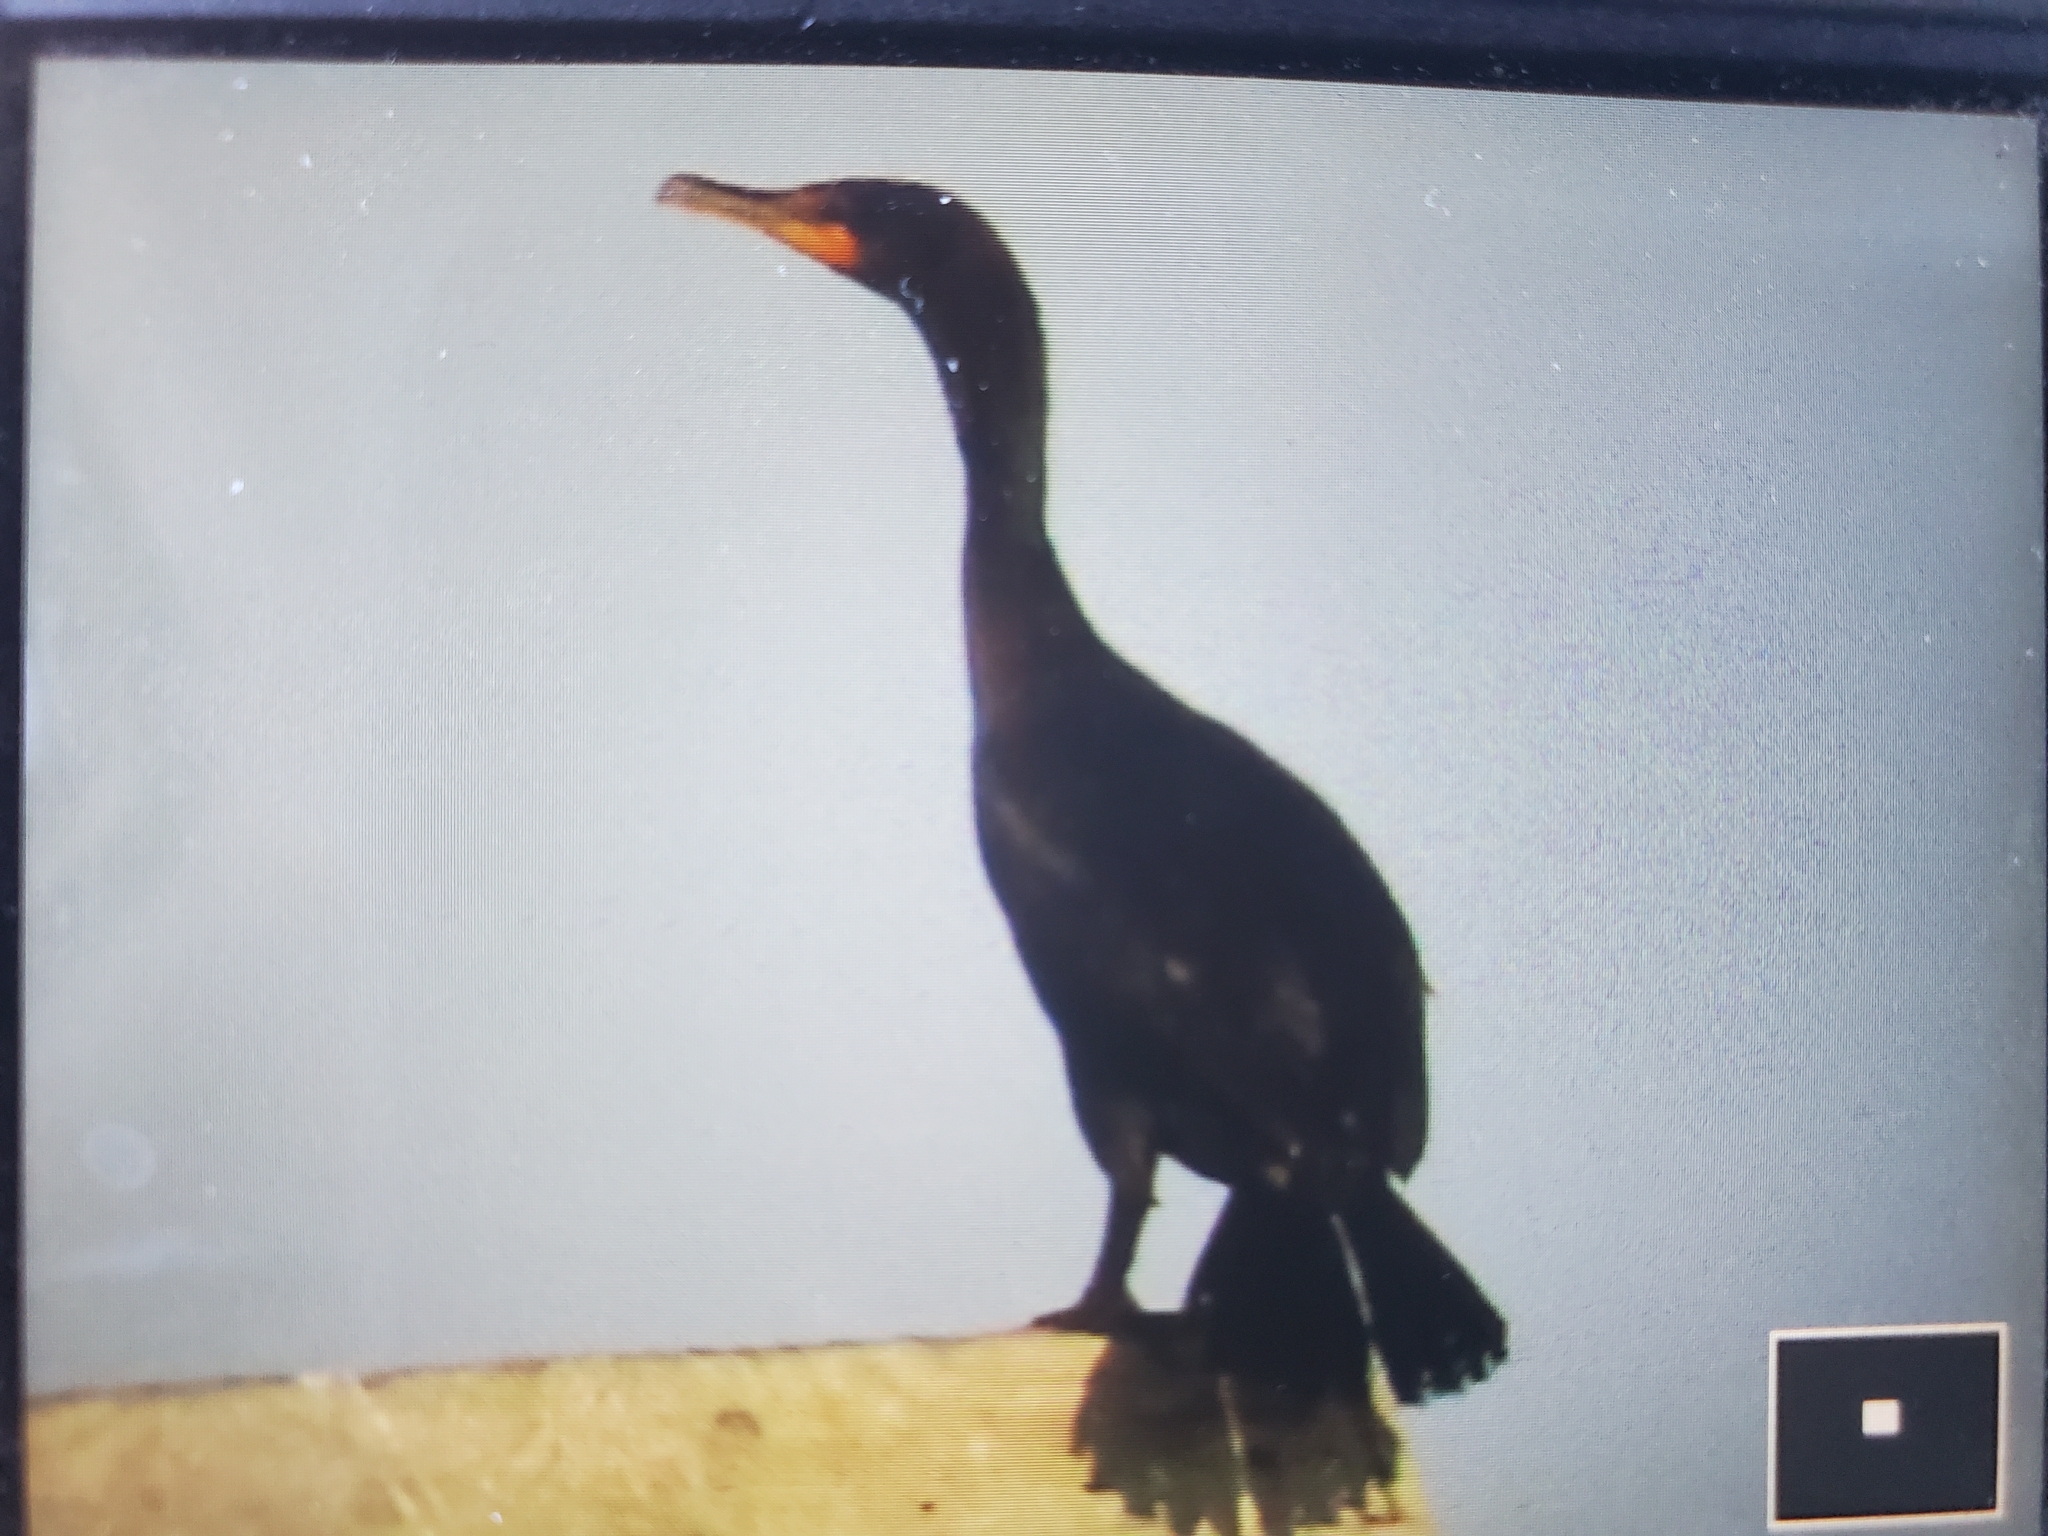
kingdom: Animalia
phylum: Chordata
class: Aves
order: Suliformes
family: Phalacrocoracidae
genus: Phalacrocorax
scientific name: Phalacrocorax auritus
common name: Double-crested cormorant
